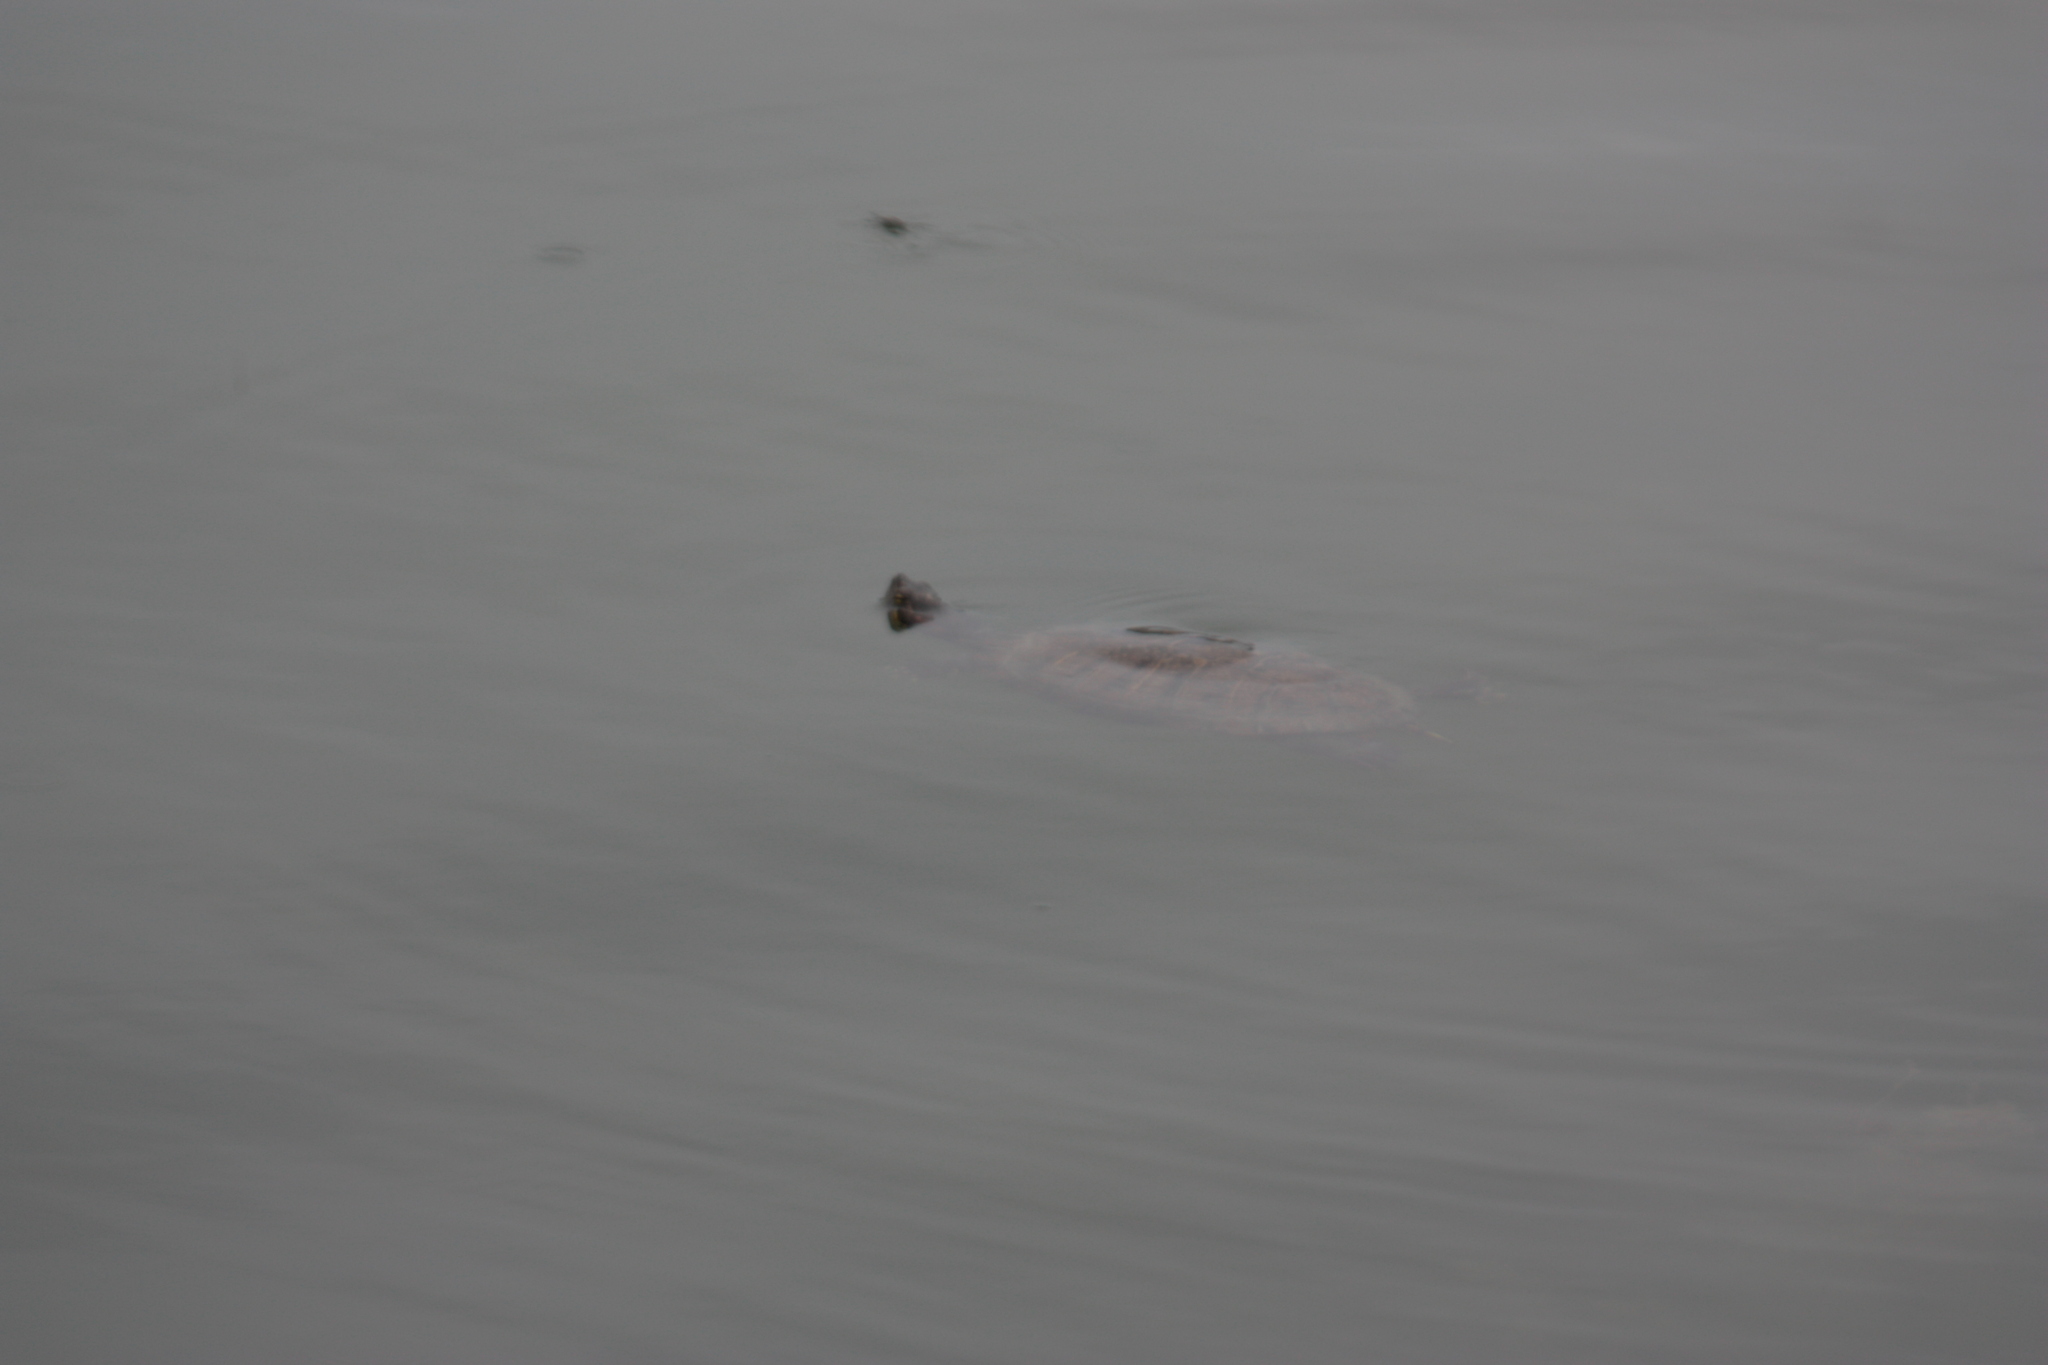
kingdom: Animalia
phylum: Chordata
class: Testudines
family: Emydidae
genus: Trachemys
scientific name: Trachemys scripta
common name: Slider
